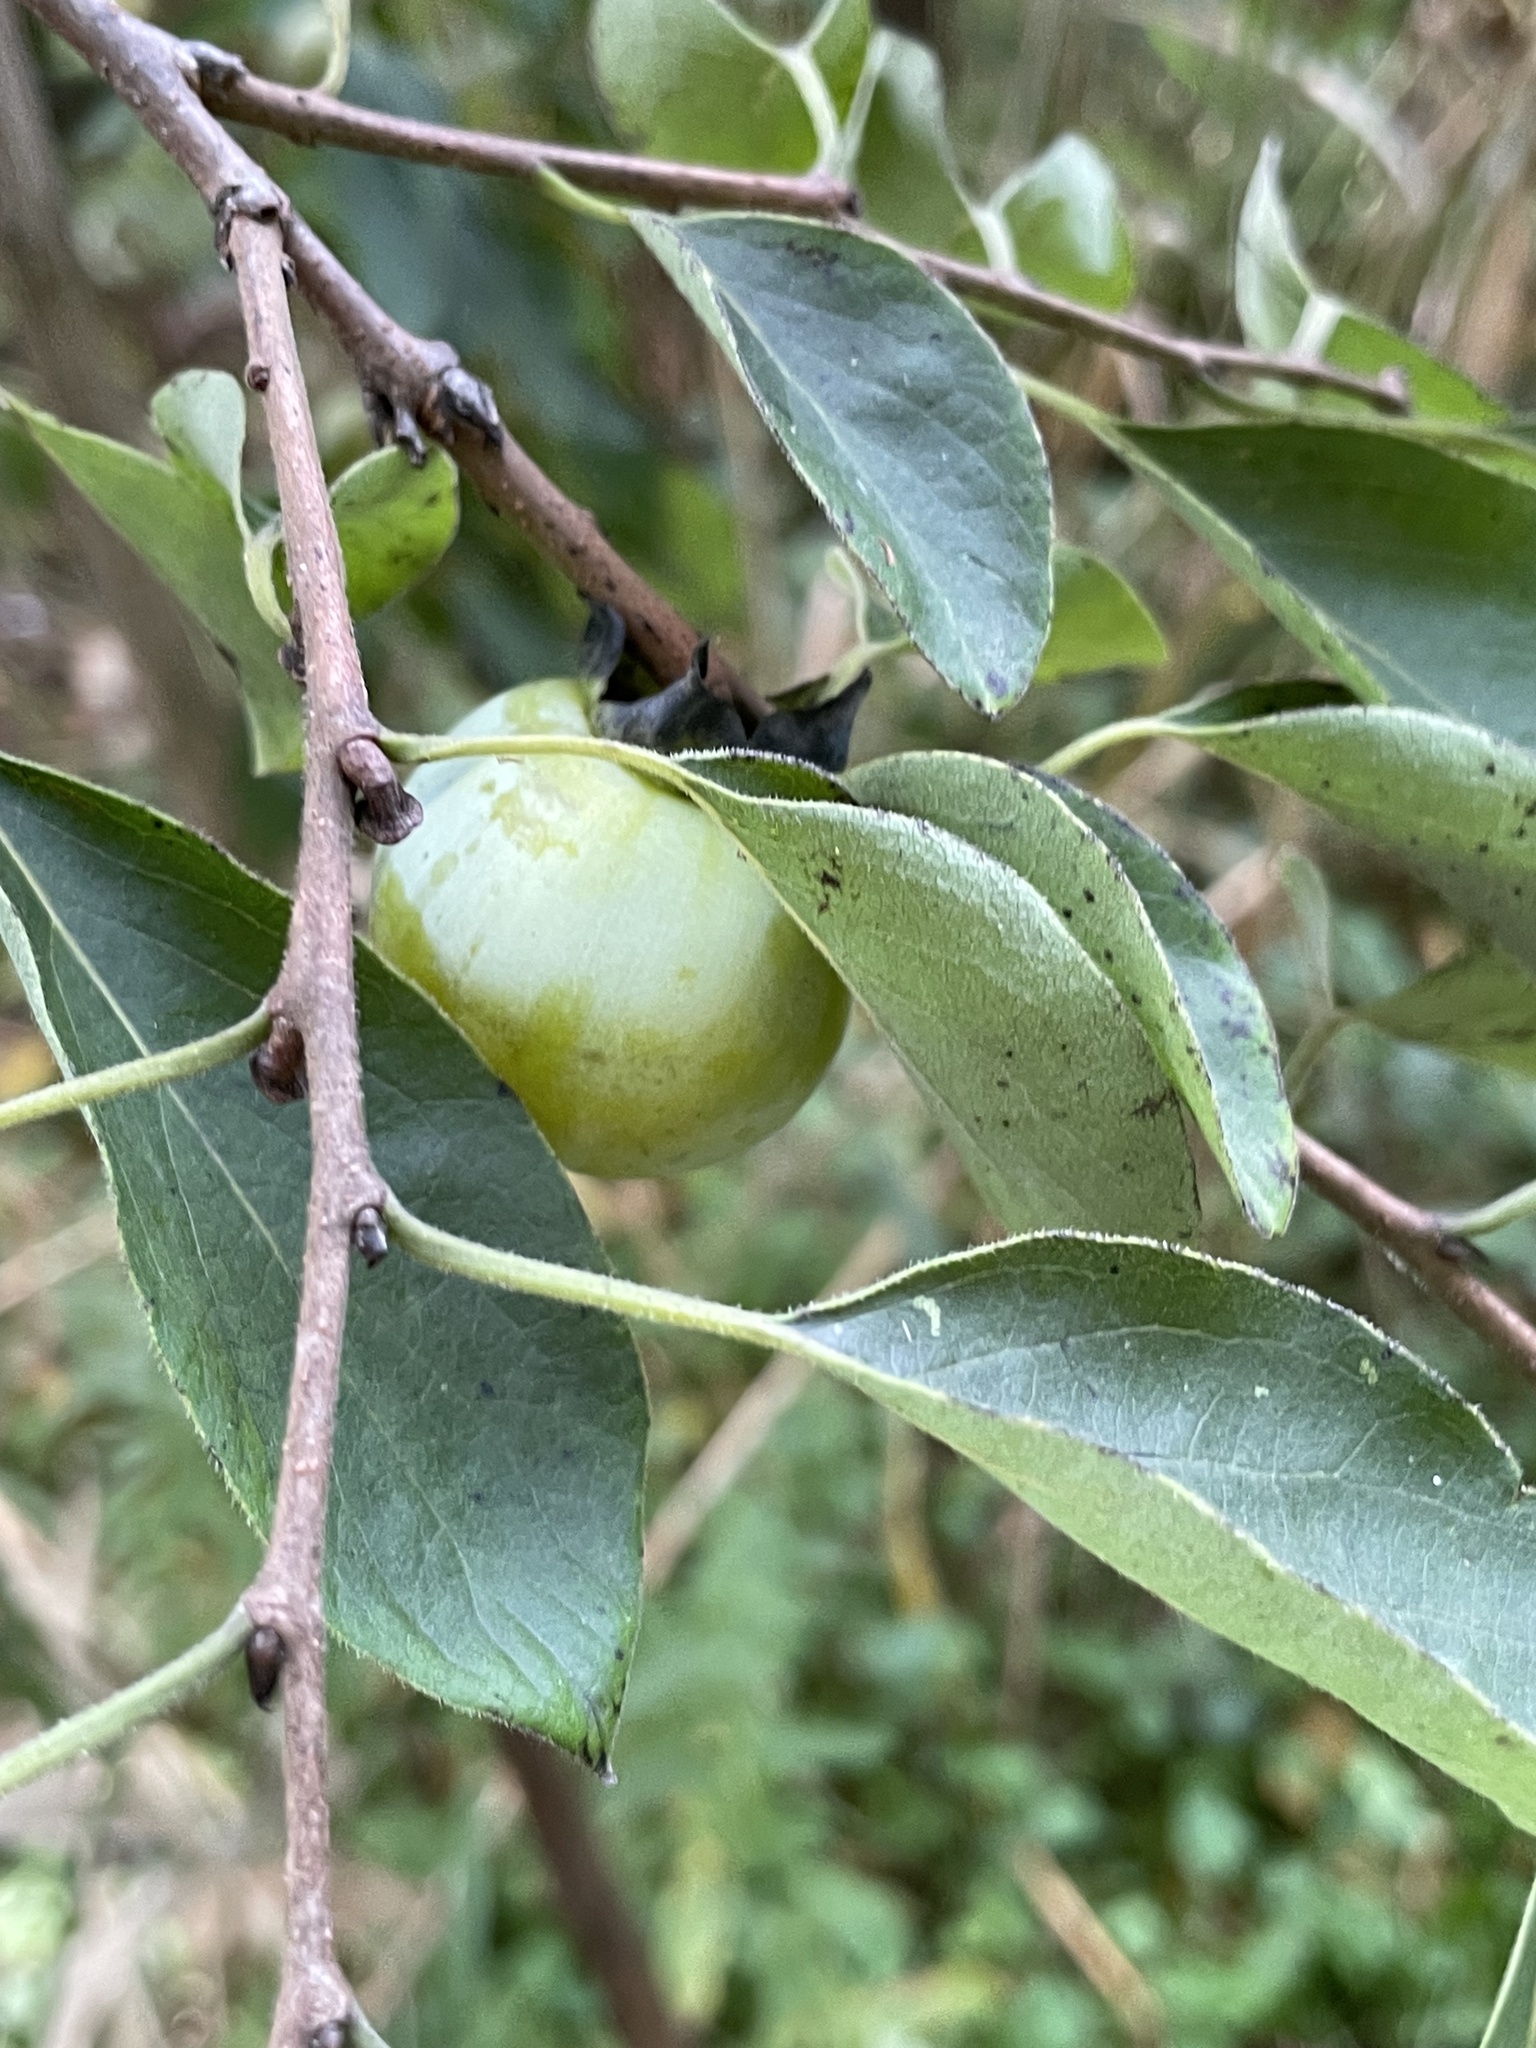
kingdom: Plantae
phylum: Tracheophyta
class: Magnoliopsida
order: Ericales
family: Ebenaceae
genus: Diospyros
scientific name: Diospyros virginiana
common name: Persimmon
